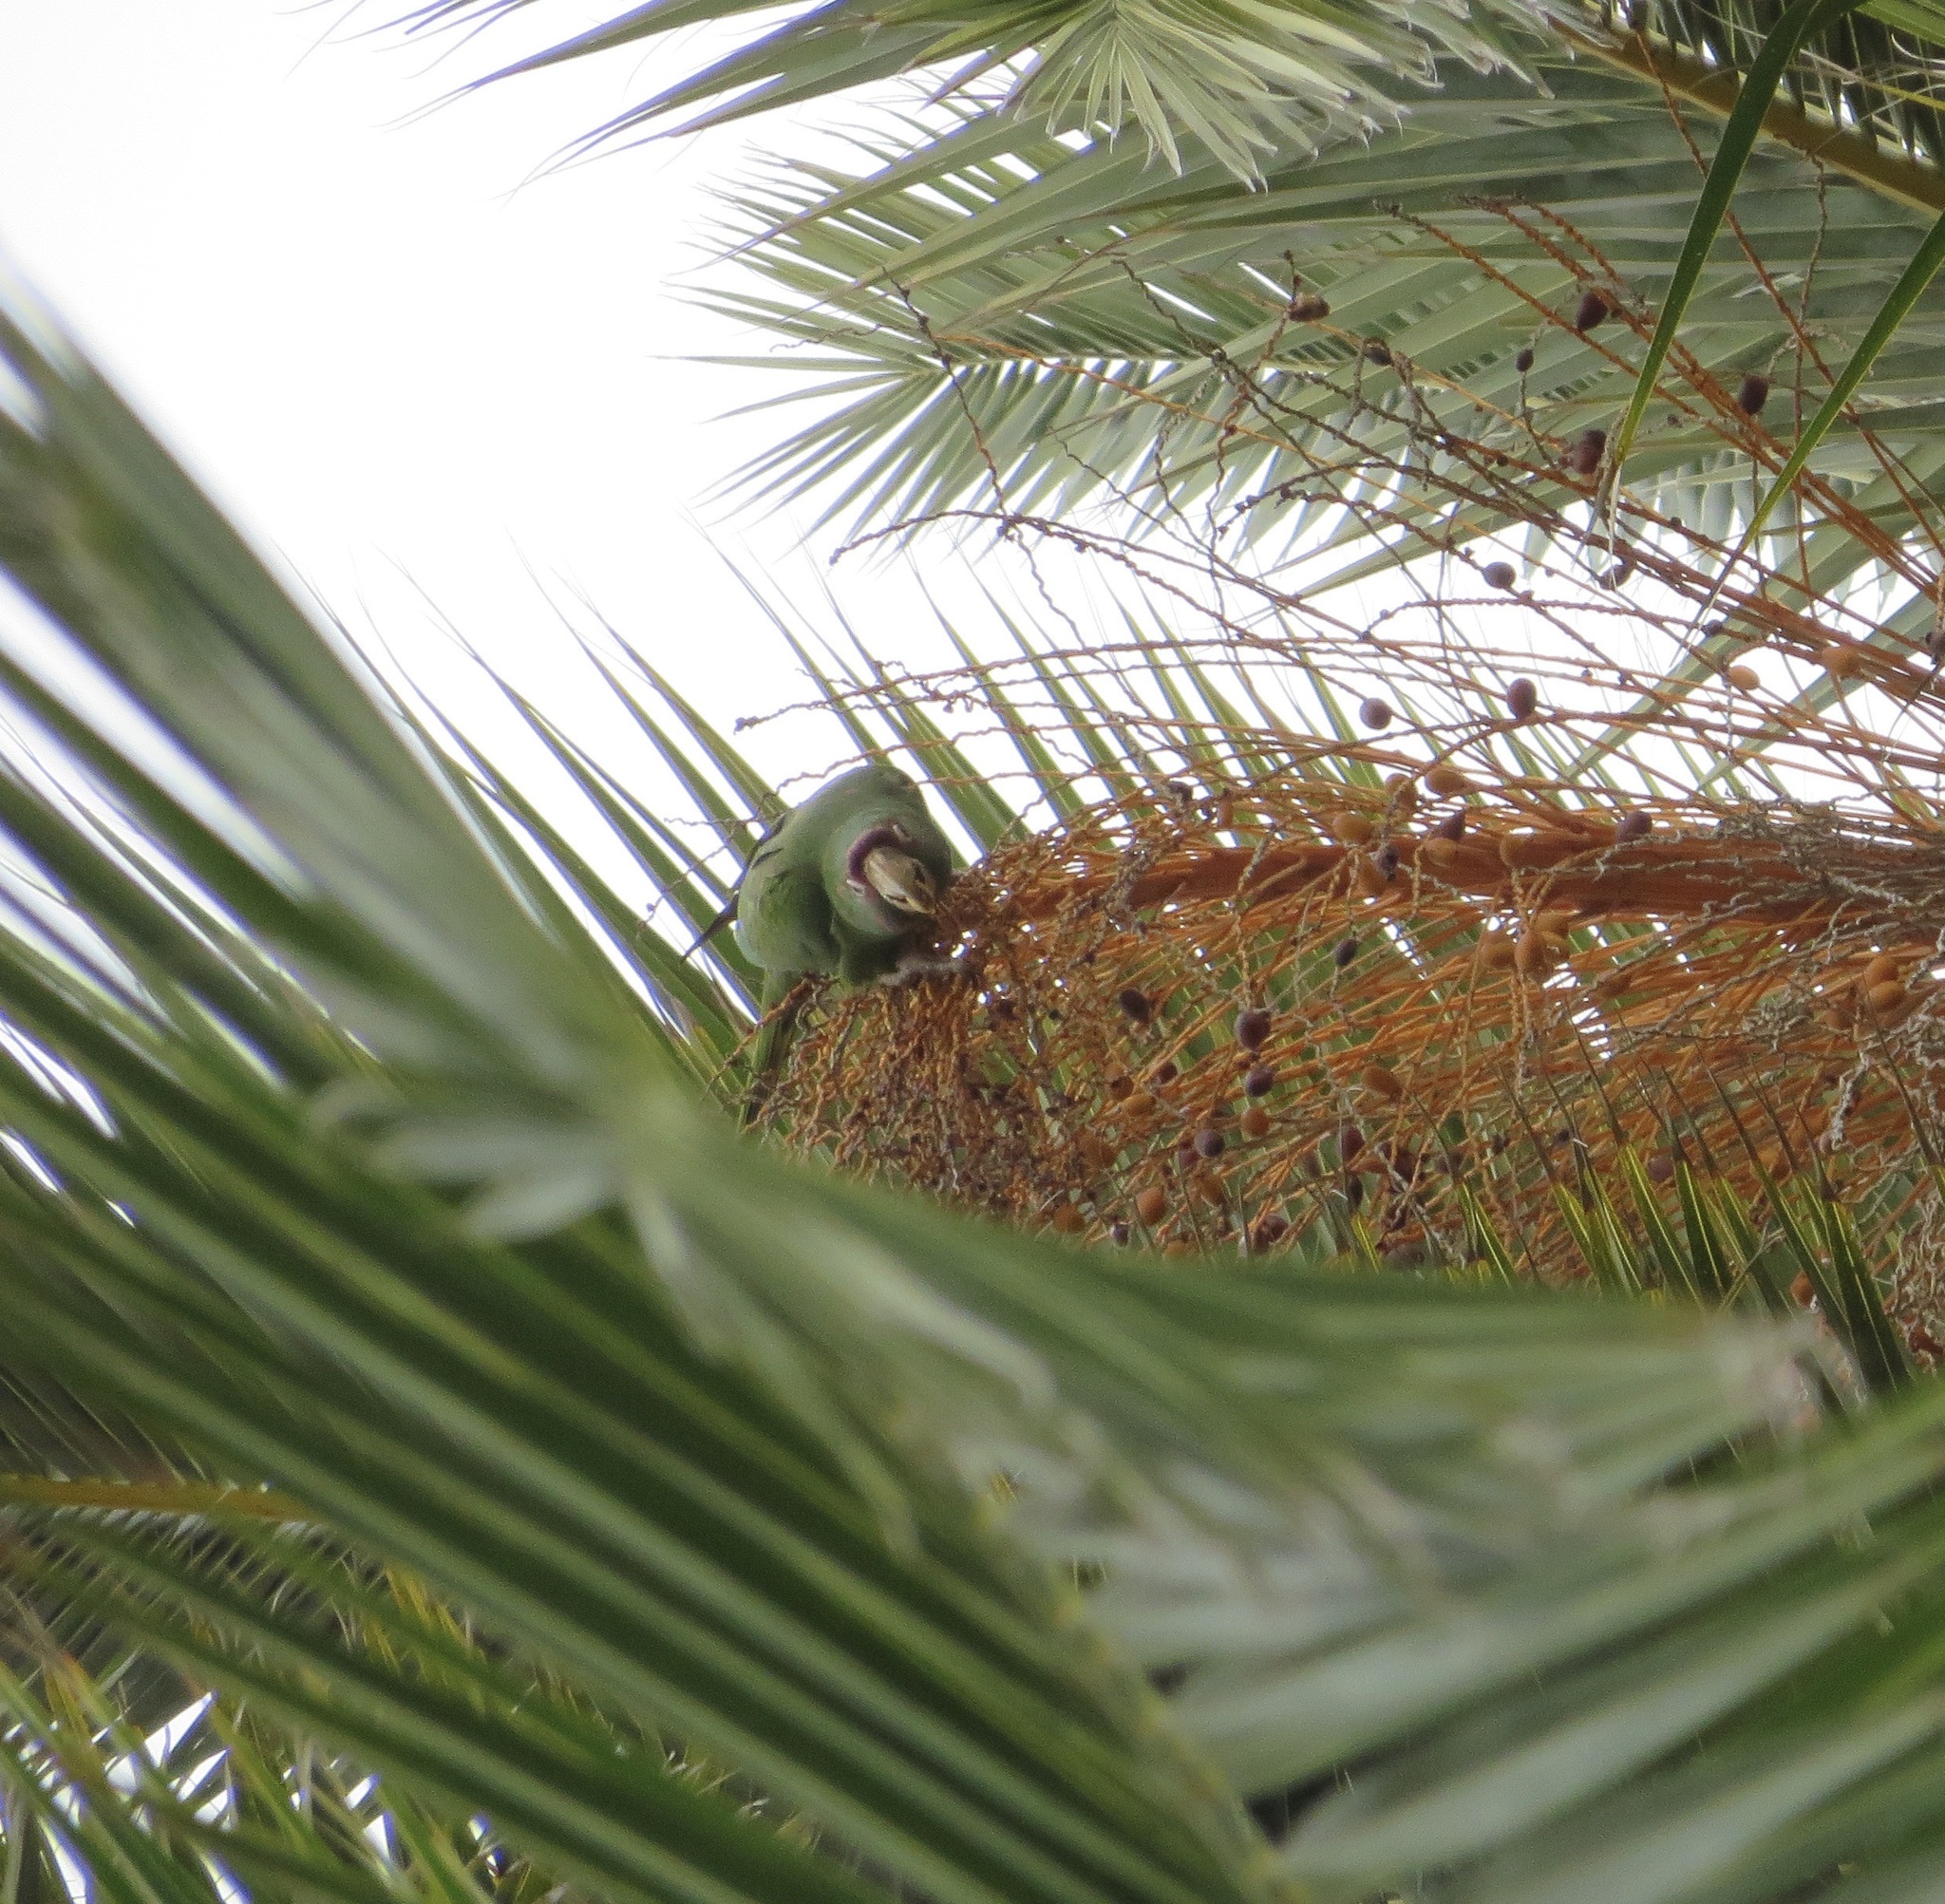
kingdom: Animalia
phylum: Chordata
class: Aves
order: Psittaciformes
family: Psittacidae
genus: Aratinga
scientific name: Aratinga mitrata
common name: Mitred parakeet
